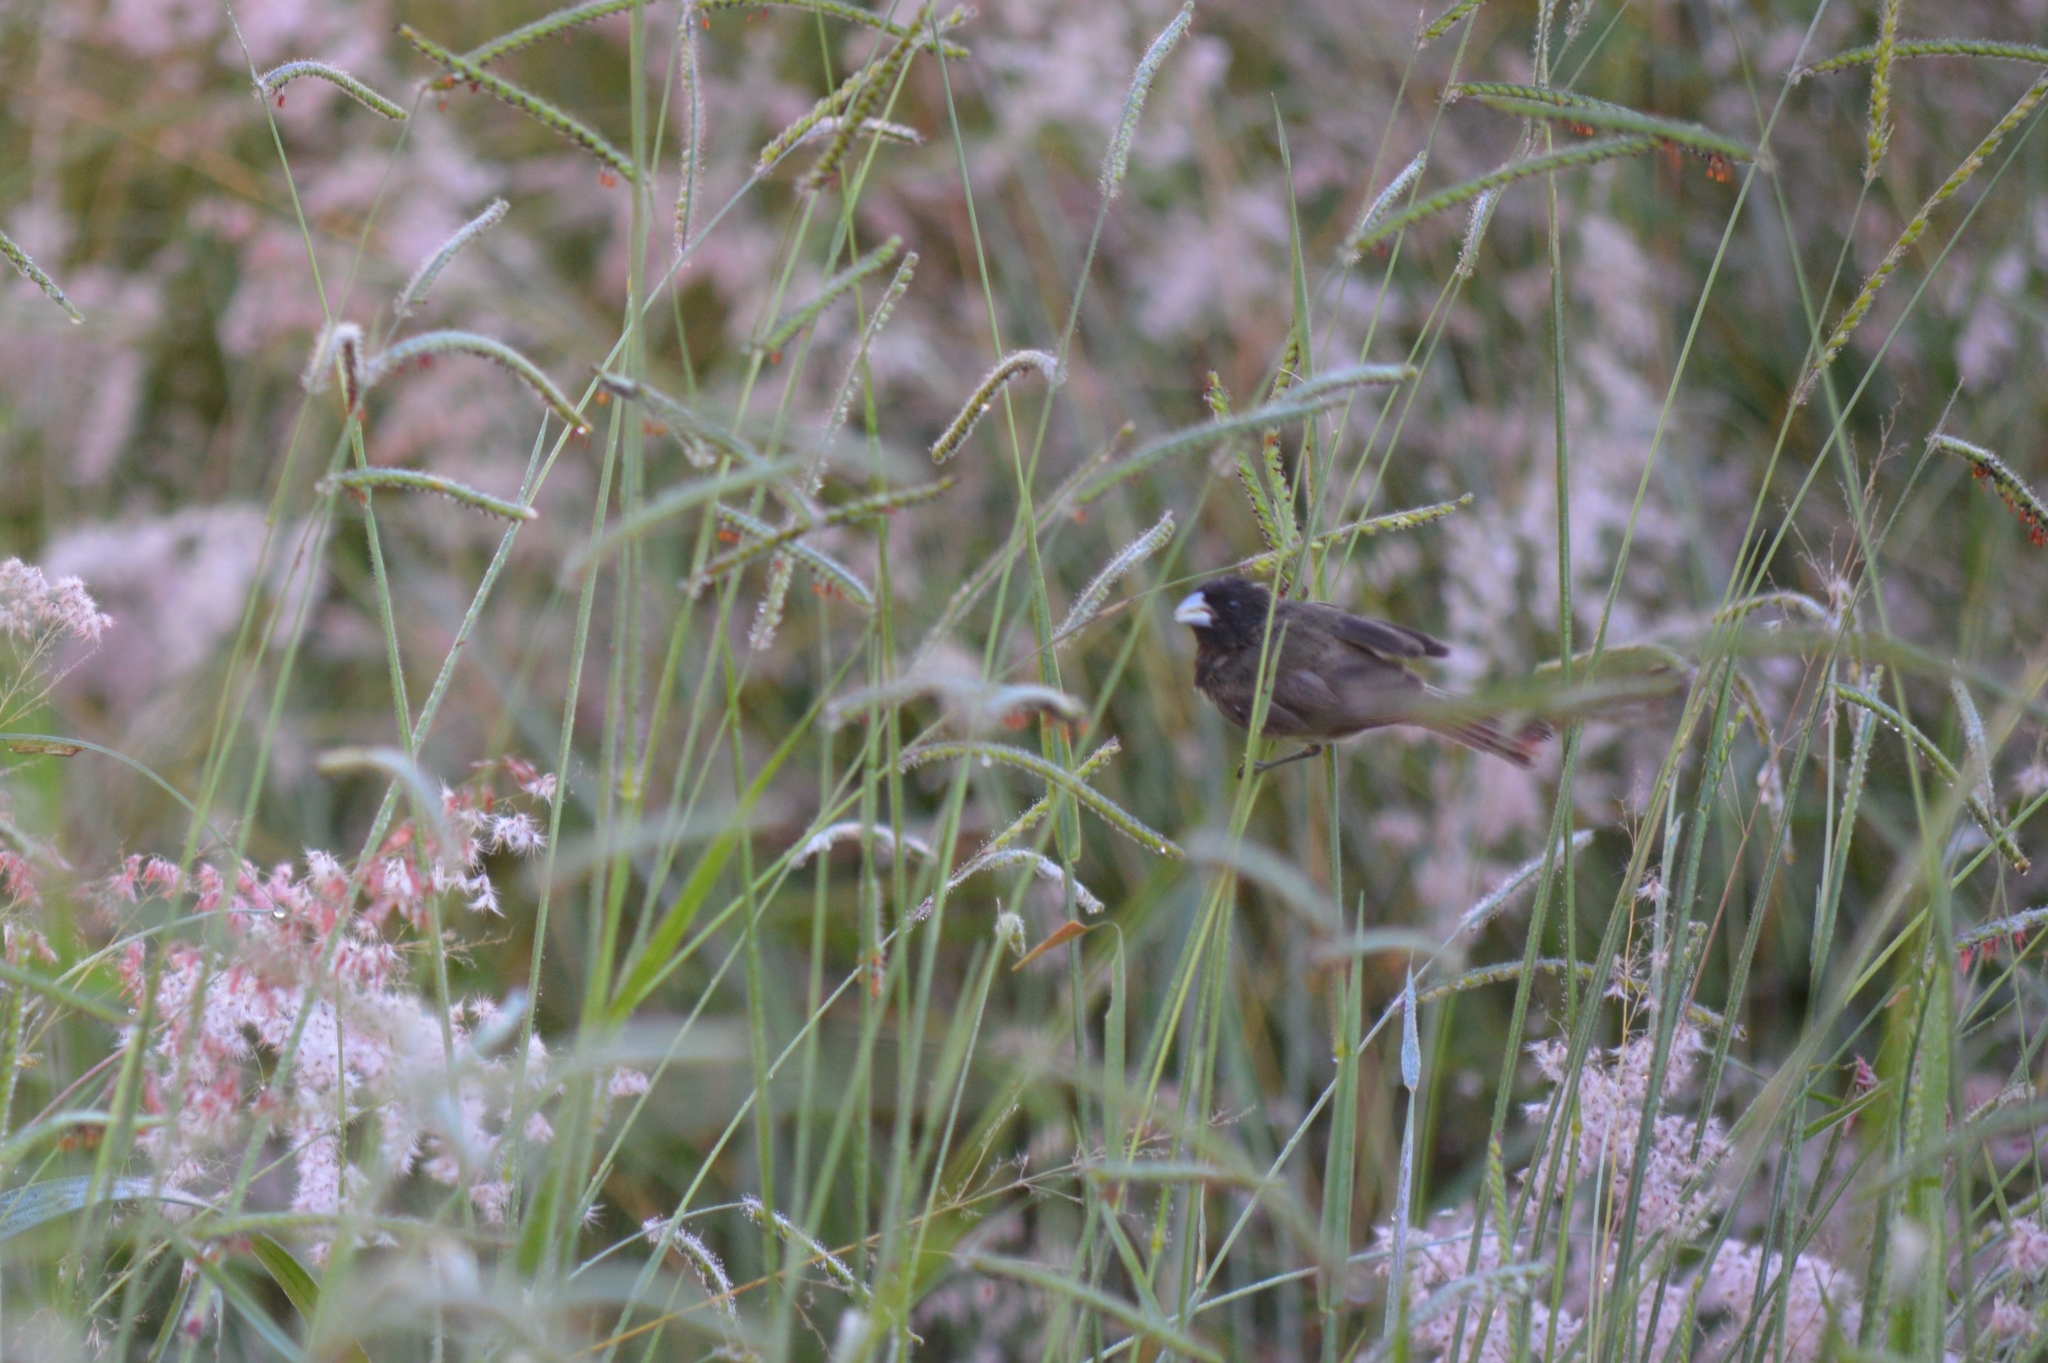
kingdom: Animalia
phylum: Chordata
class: Aves
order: Passeriformes
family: Thraupidae
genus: Sporophila
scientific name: Sporophila nigricollis
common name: Yellow-bellied seedeater
